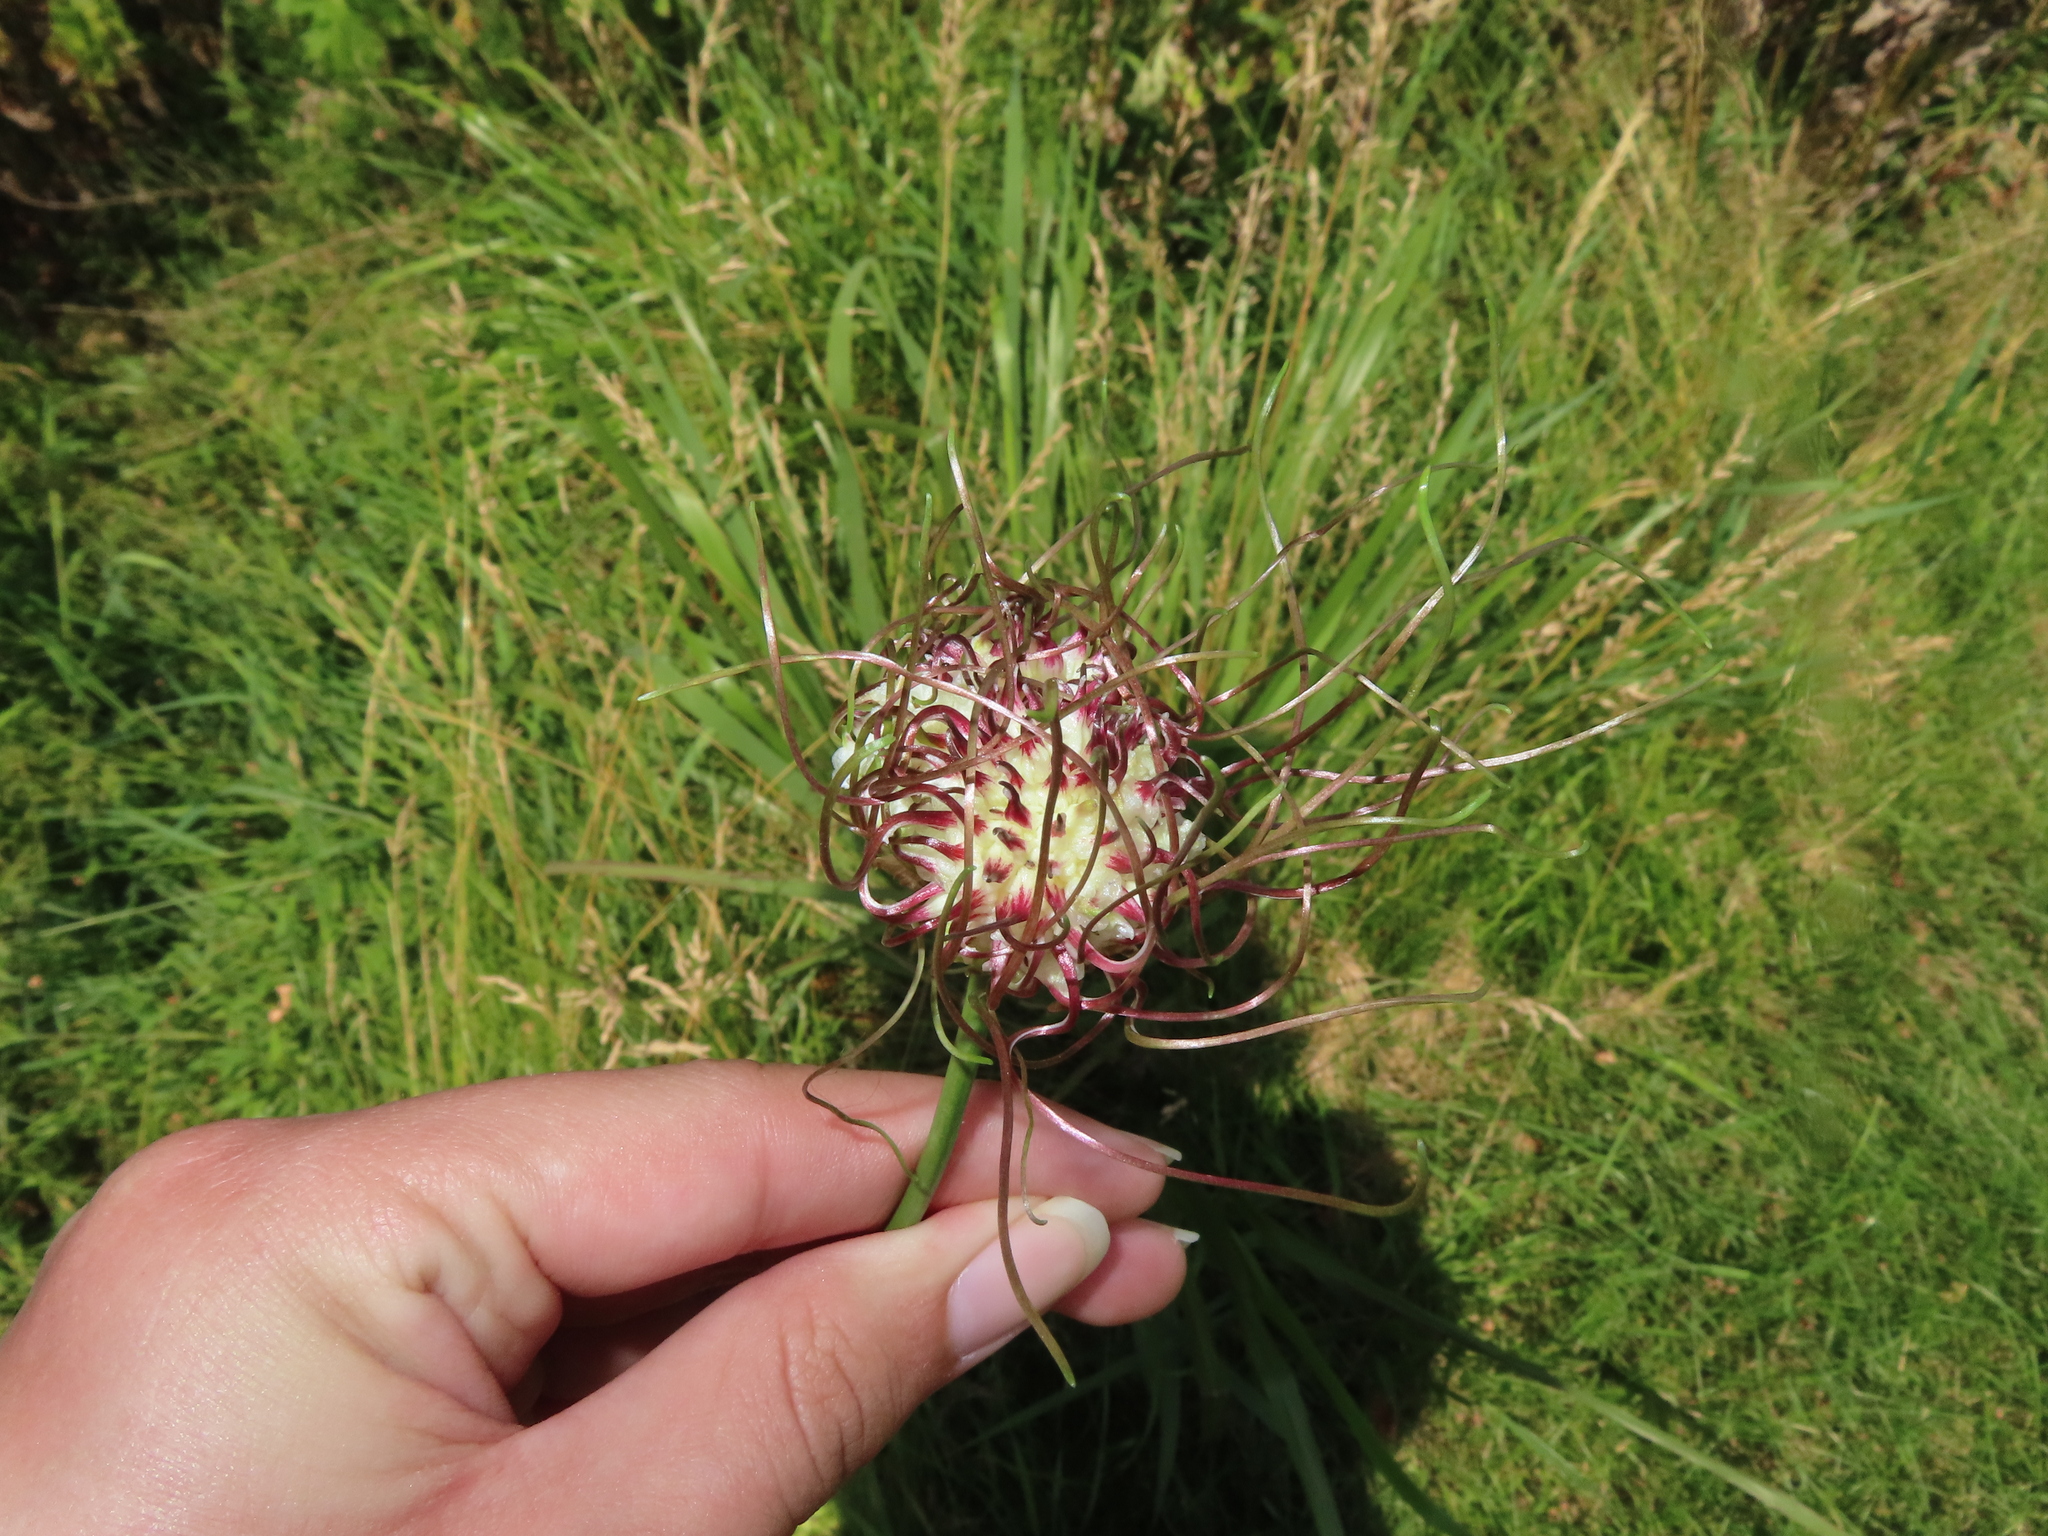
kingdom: Plantae
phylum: Tracheophyta
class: Liliopsida
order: Asparagales
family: Amaryllidaceae
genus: Allium
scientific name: Allium vineale
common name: Crow garlic
